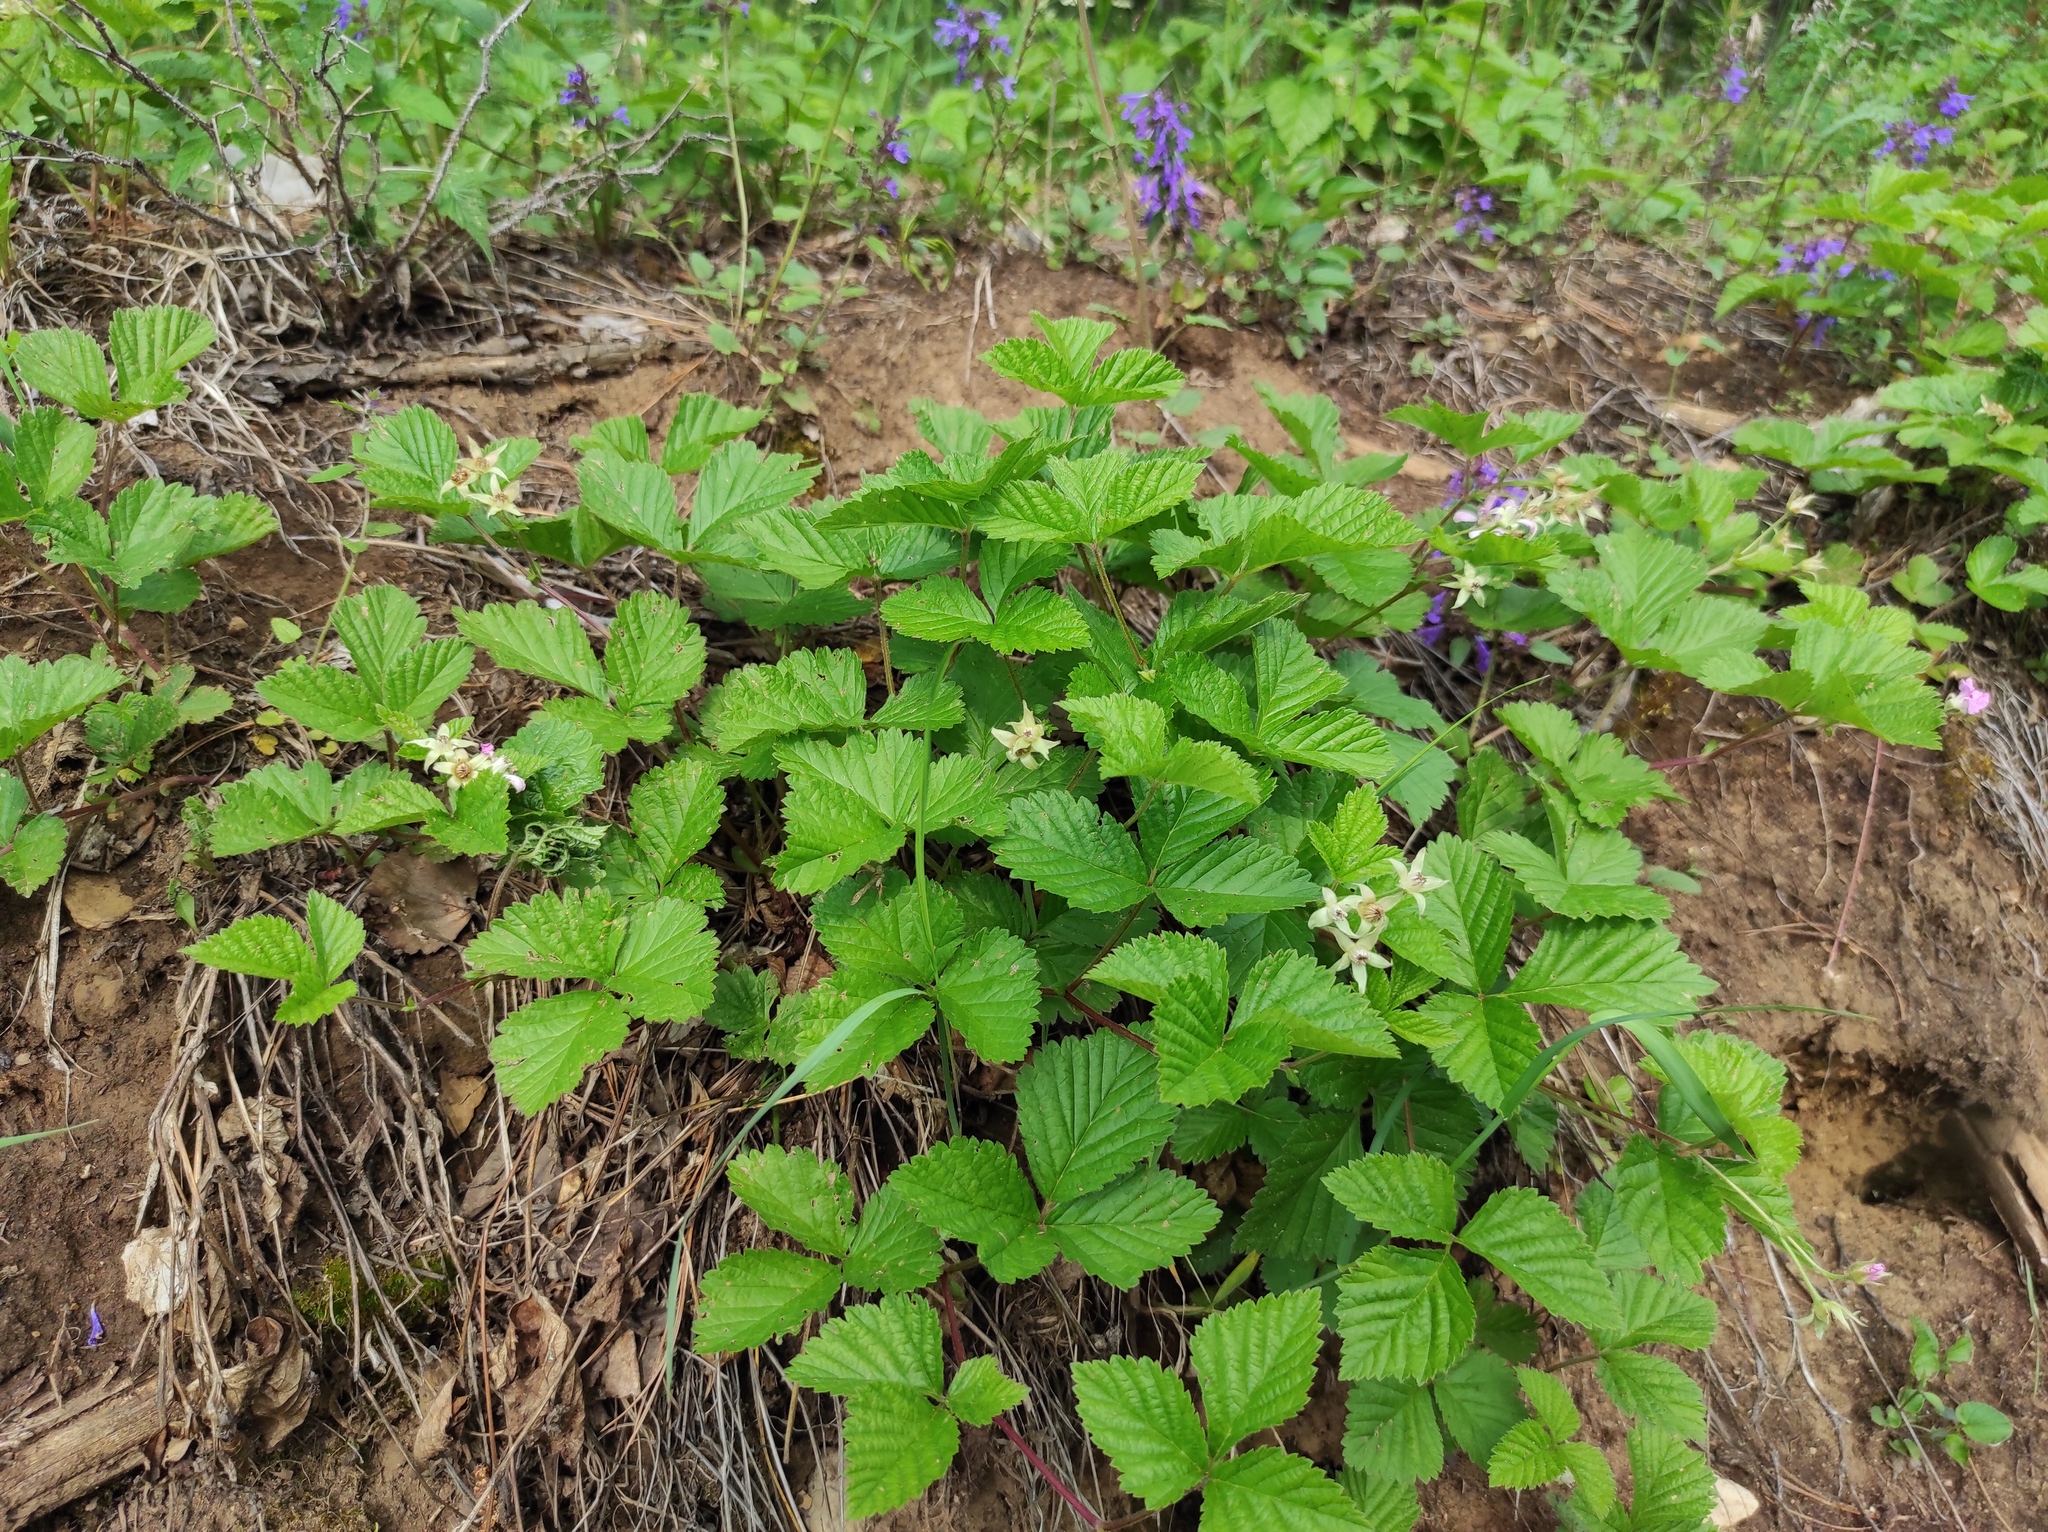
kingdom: Plantae
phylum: Tracheophyta
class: Magnoliopsida
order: Rosales
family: Rosaceae
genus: Rubus
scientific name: Rubus arcticus
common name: Arctic bramble
